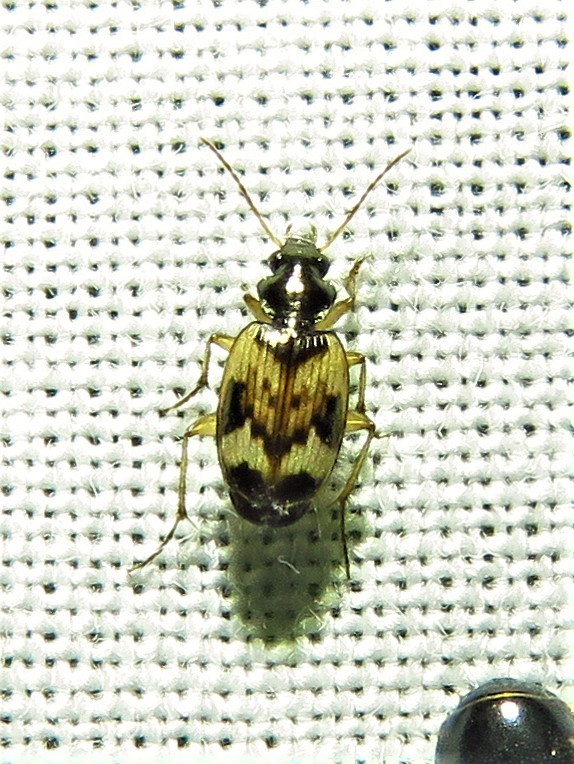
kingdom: Animalia
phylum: Arthropoda
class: Insecta
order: Coleoptera
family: Carabidae
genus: Tetragonoderus
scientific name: Tetragonoderus intersectus
